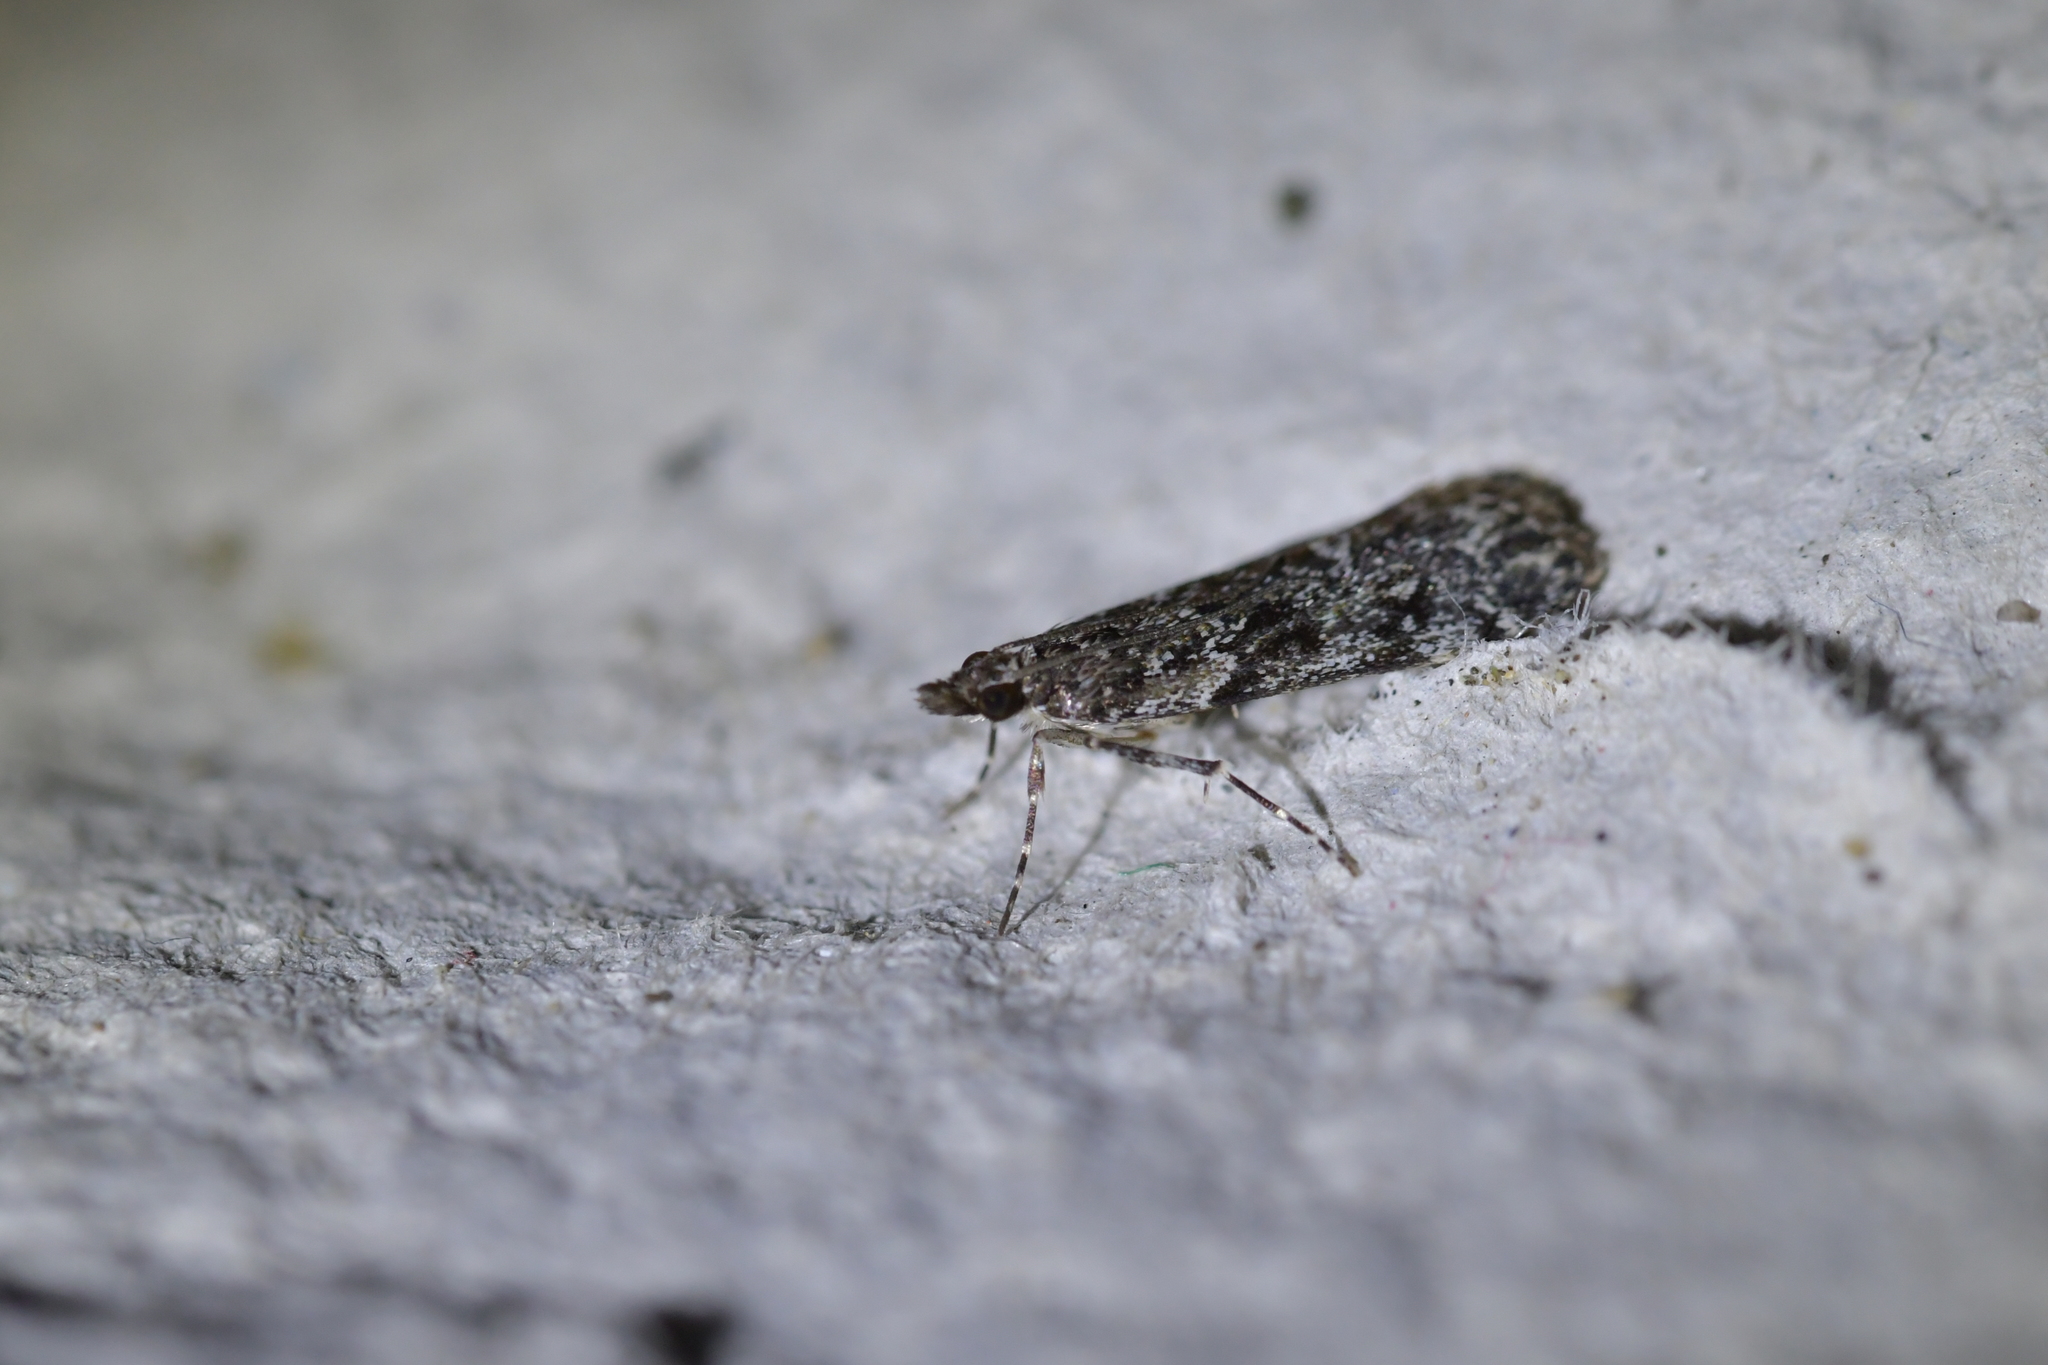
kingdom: Animalia
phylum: Arthropoda
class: Insecta
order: Lepidoptera
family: Crambidae
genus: Eudonia
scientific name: Eudonia philerga
